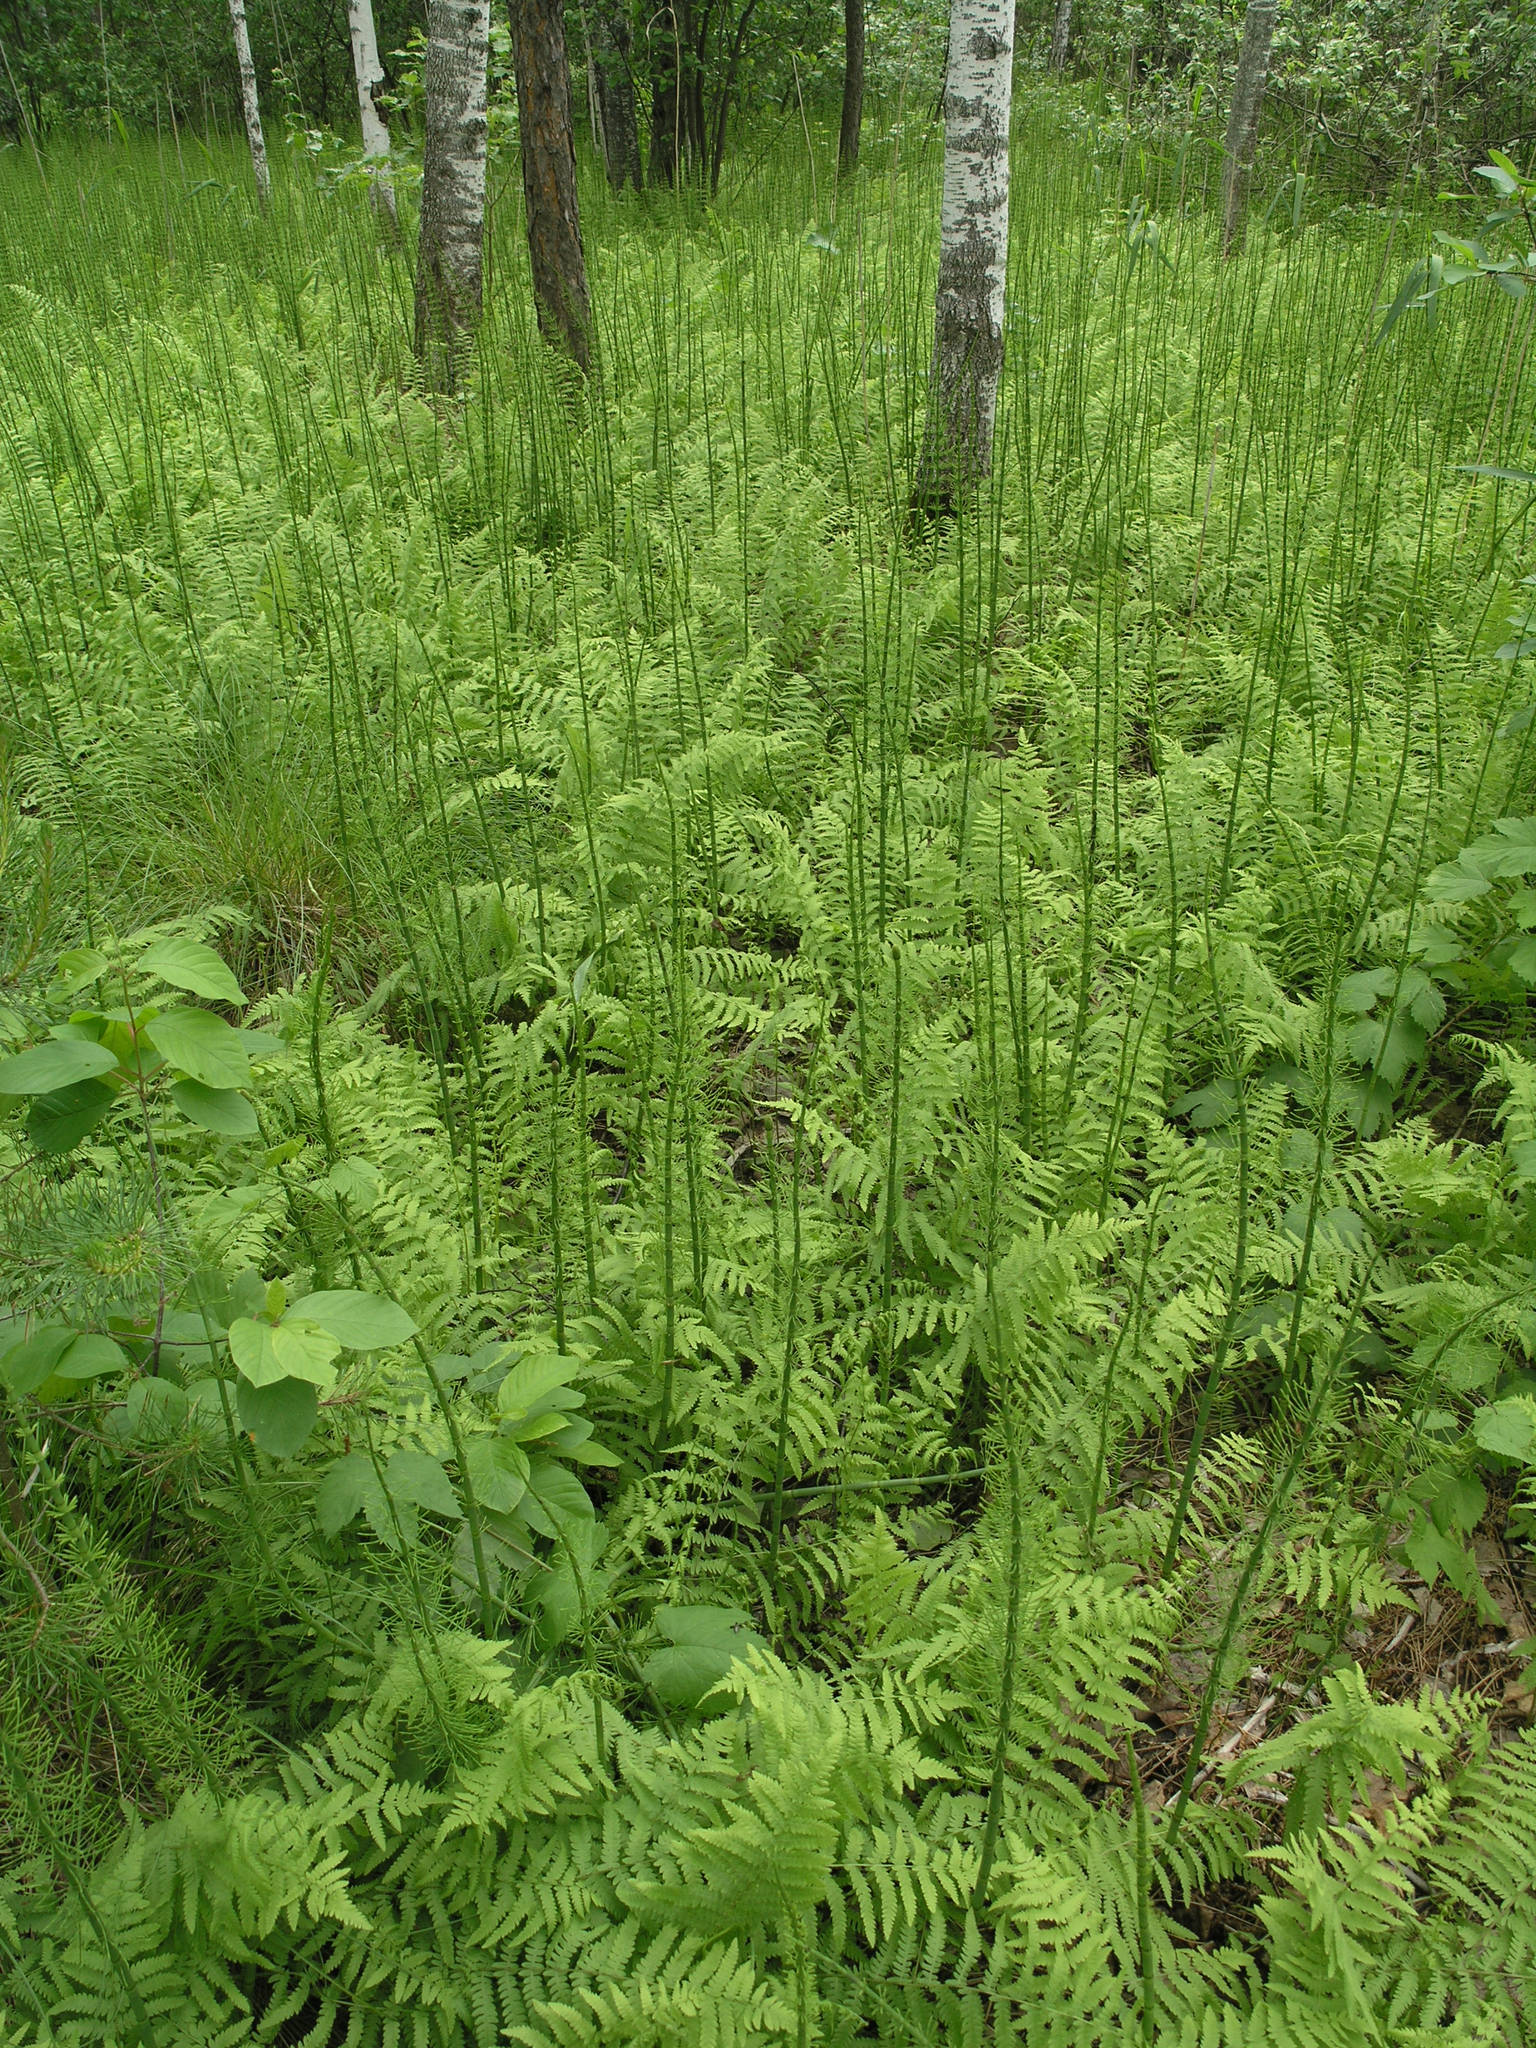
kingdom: Plantae
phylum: Tracheophyta
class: Polypodiopsida
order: Polypodiales
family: Thelypteridaceae
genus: Thelypteris
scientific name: Thelypteris palustris
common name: Marsh fern
